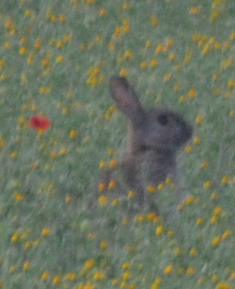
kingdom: Animalia
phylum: Chordata
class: Mammalia
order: Lagomorpha
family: Leporidae
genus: Oryctolagus
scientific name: Oryctolagus cuniculus
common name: European rabbit
